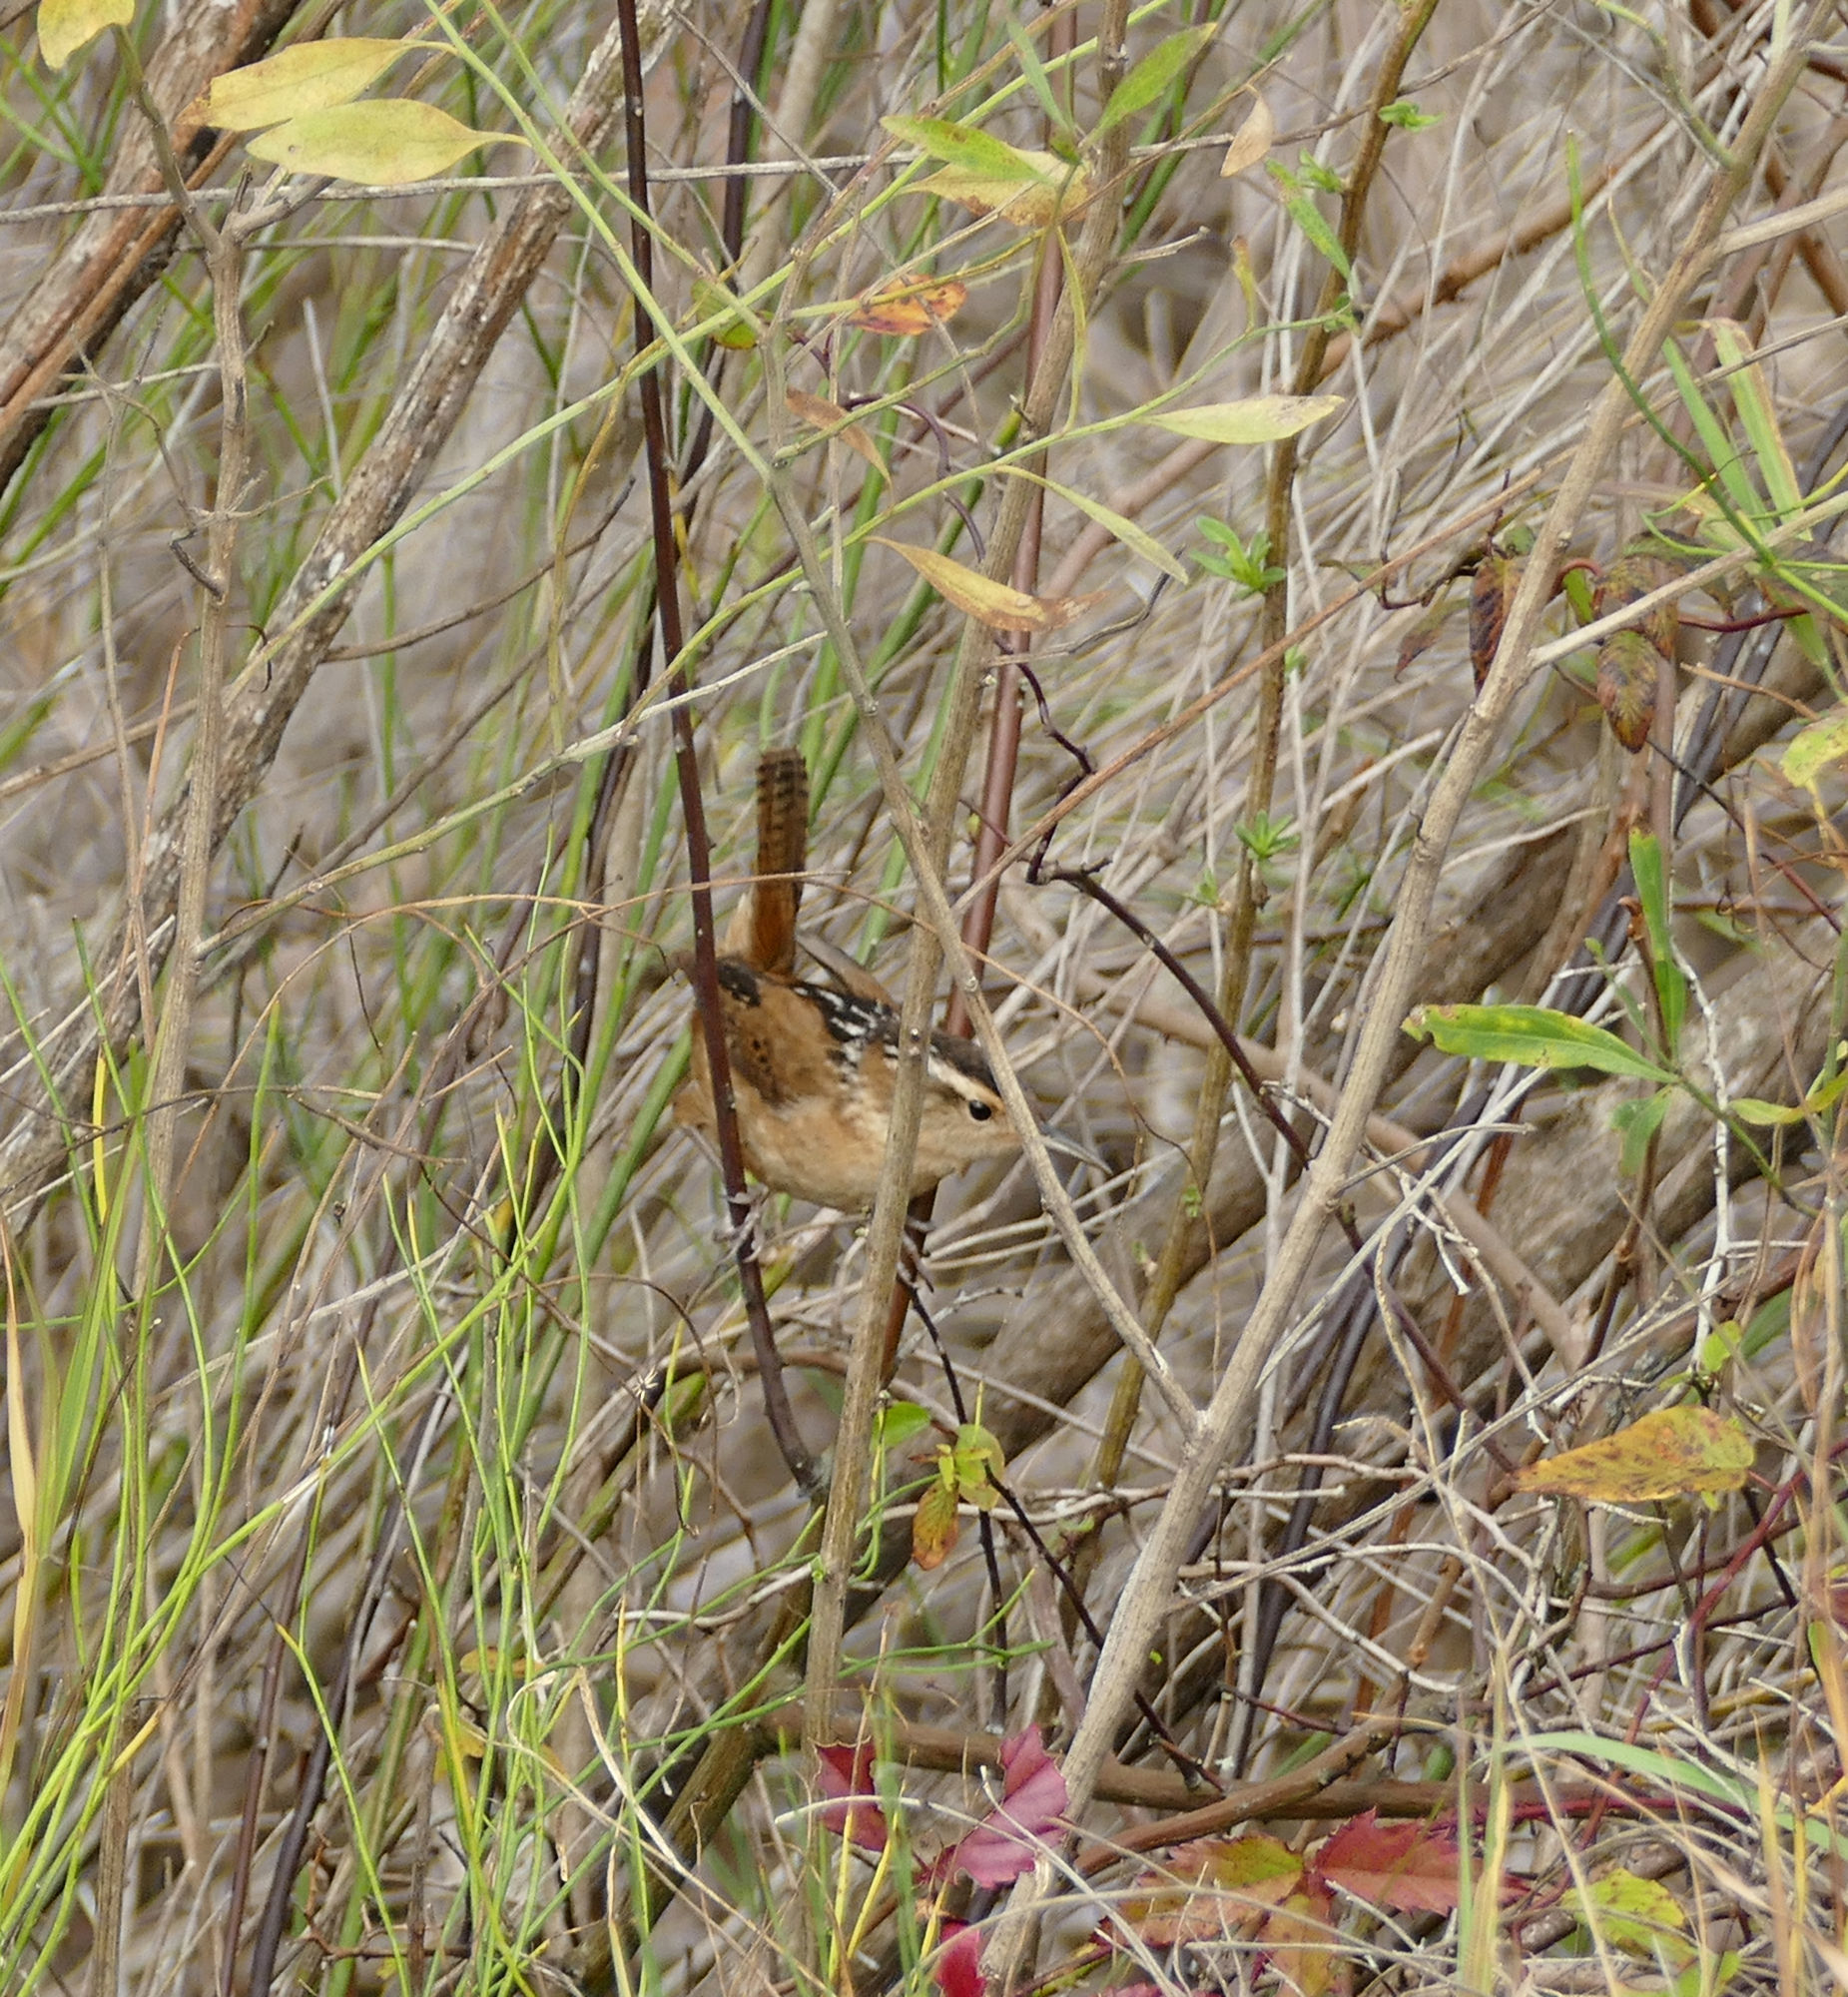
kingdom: Animalia
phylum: Chordata
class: Aves
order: Passeriformes
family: Troglodytidae
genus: Cistothorus
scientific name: Cistothorus palustris
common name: Marsh wren
